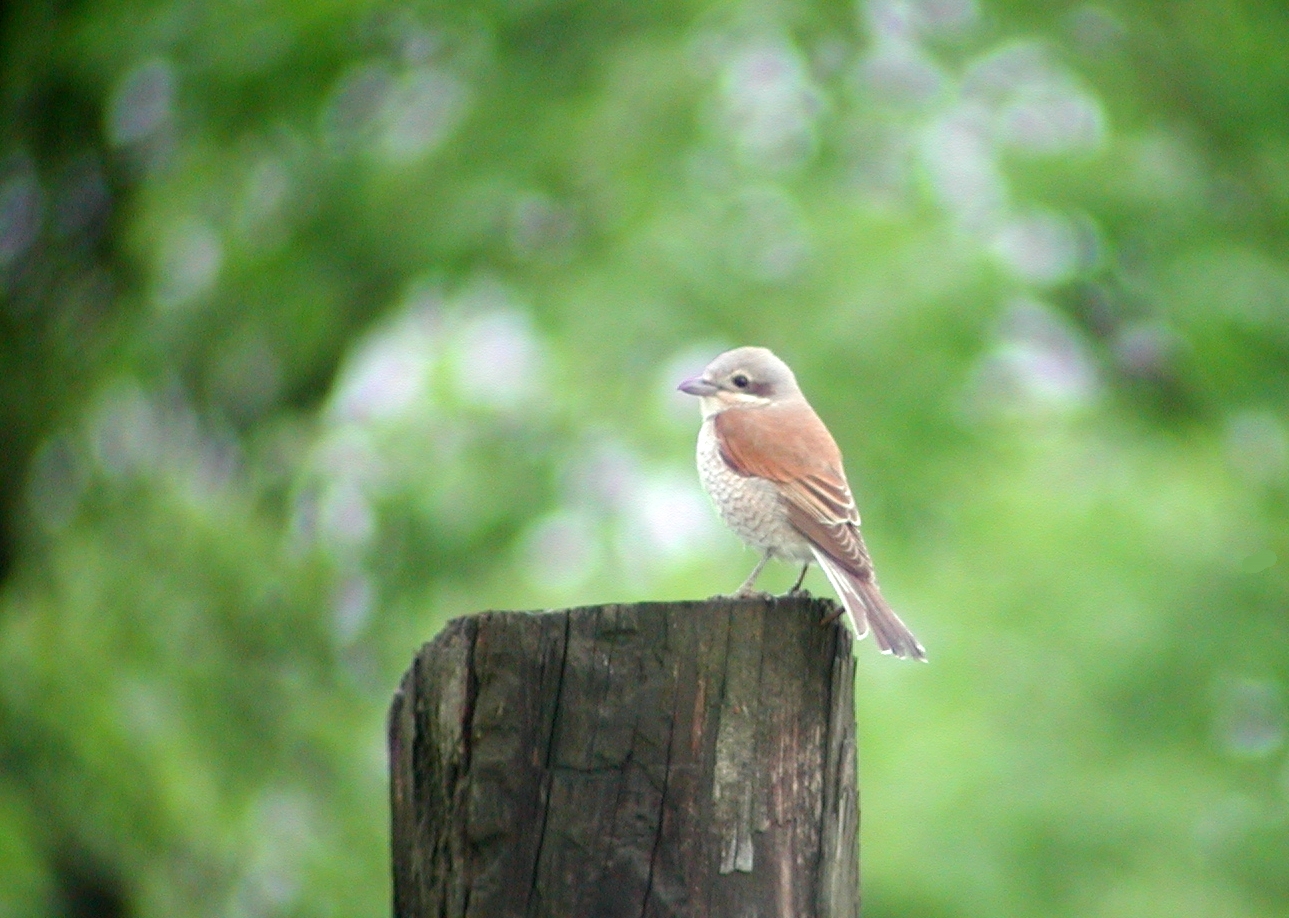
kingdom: Animalia
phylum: Chordata
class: Aves
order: Passeriformes
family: Laniidae
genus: Lanius
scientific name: Lanius collurio
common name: Red-backed shrike
